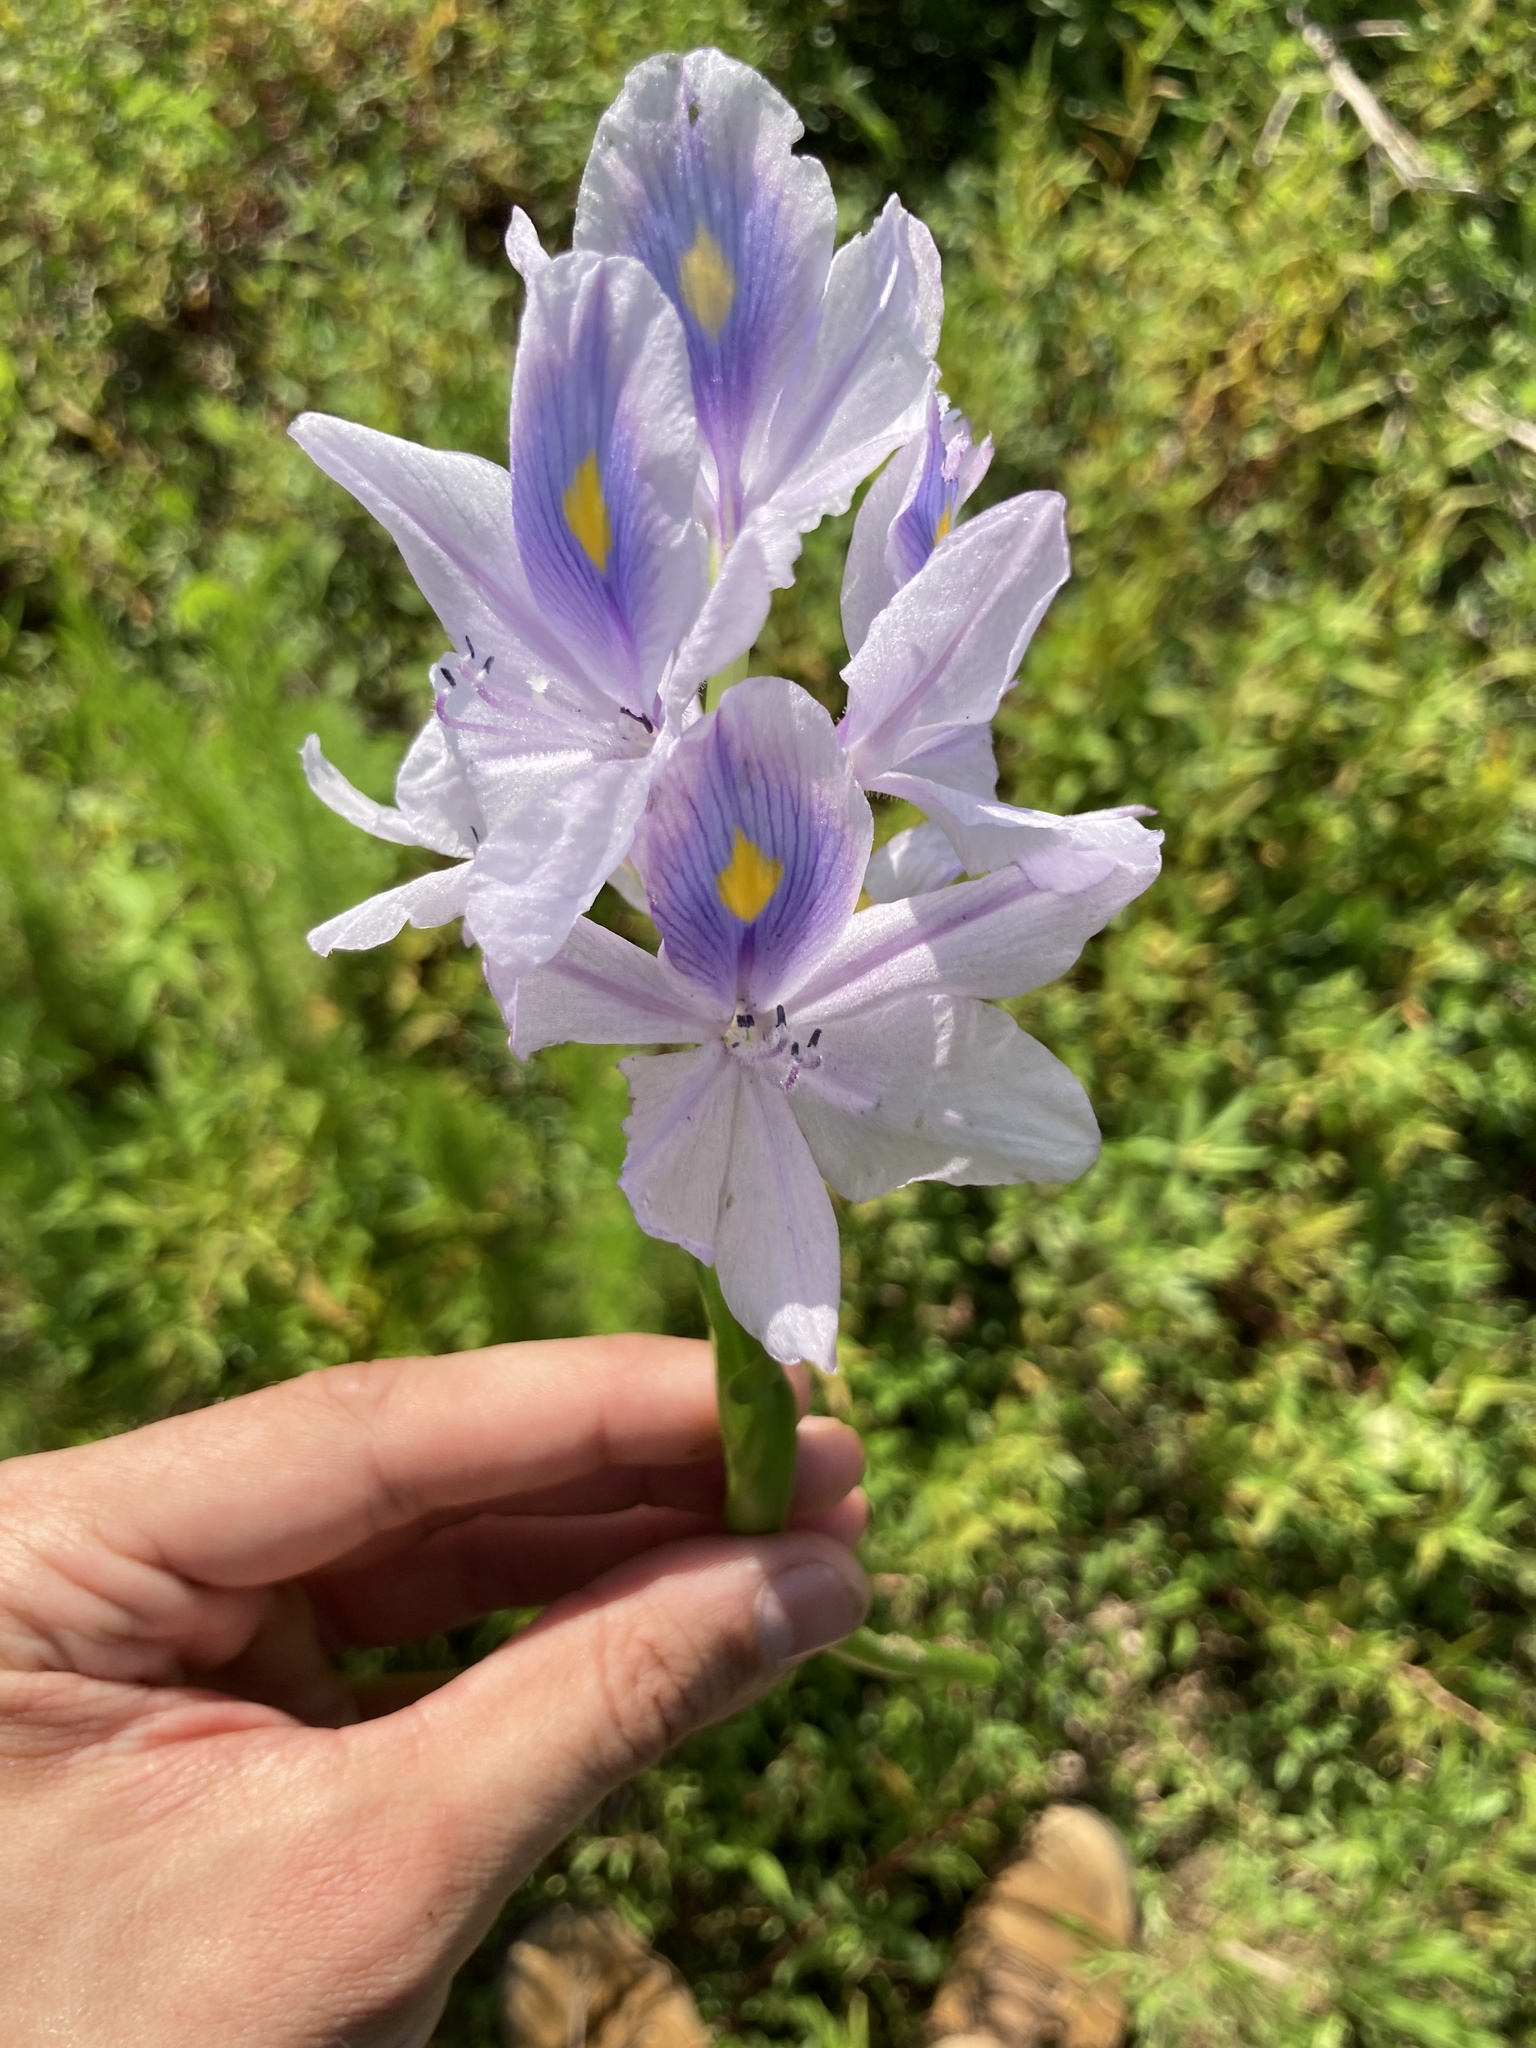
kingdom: Plantae
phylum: Tracheophyta
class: Liliopsida
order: Commelinales
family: Pontederiaceae
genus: Pontederia
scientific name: Pontederia crassipes
